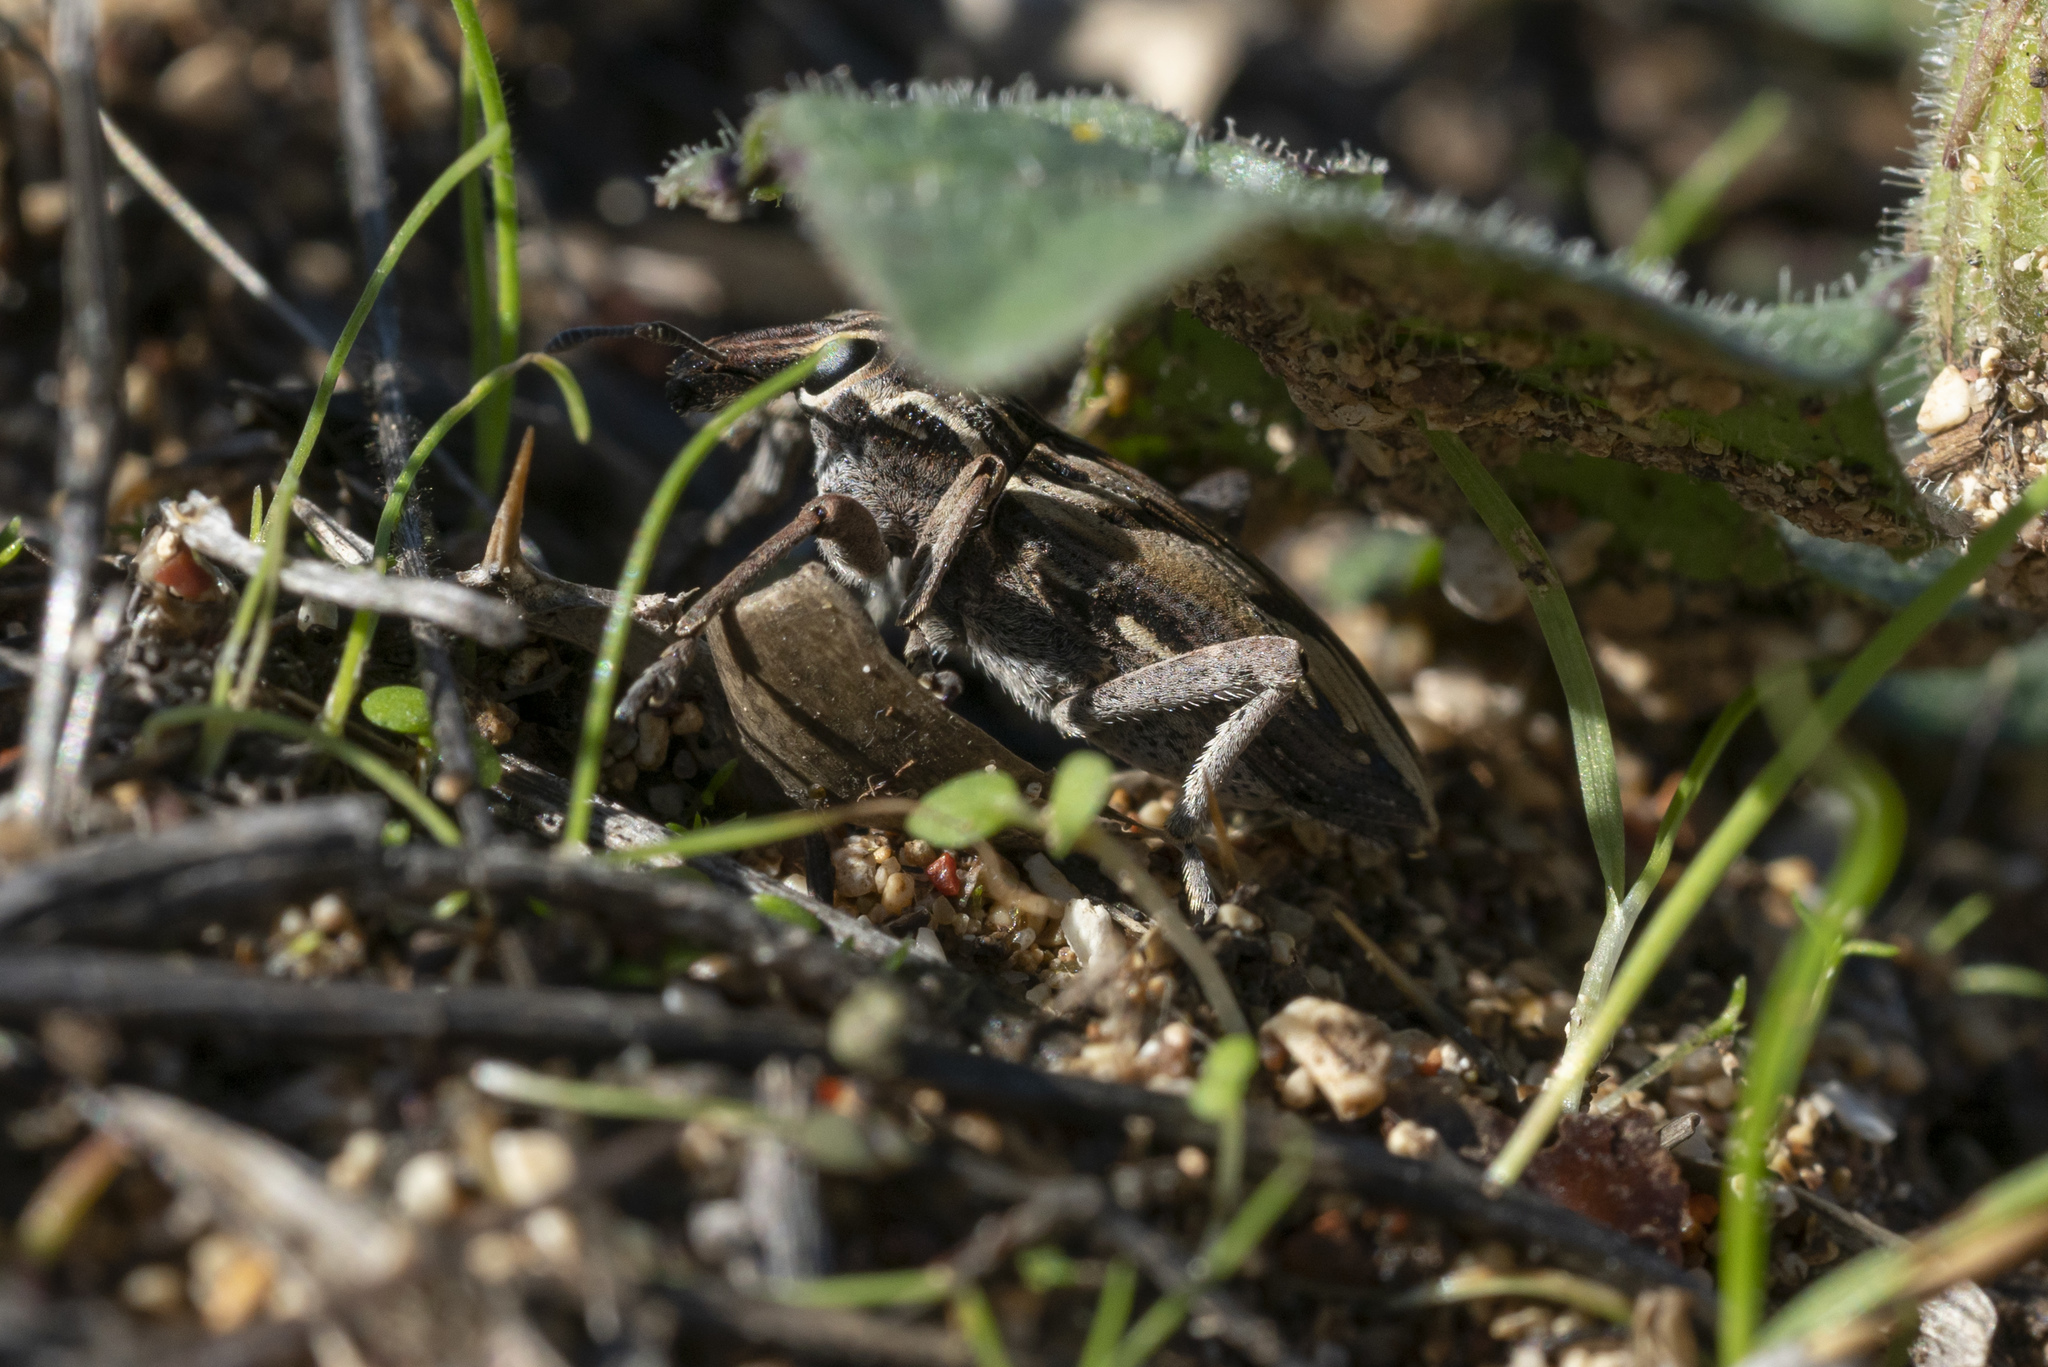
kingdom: Animalia
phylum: Arthropoda
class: Insecta
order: Coleoptera
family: Curculionidae
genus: Coniocleonus
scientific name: Coniocleonus nigrosuturatus
